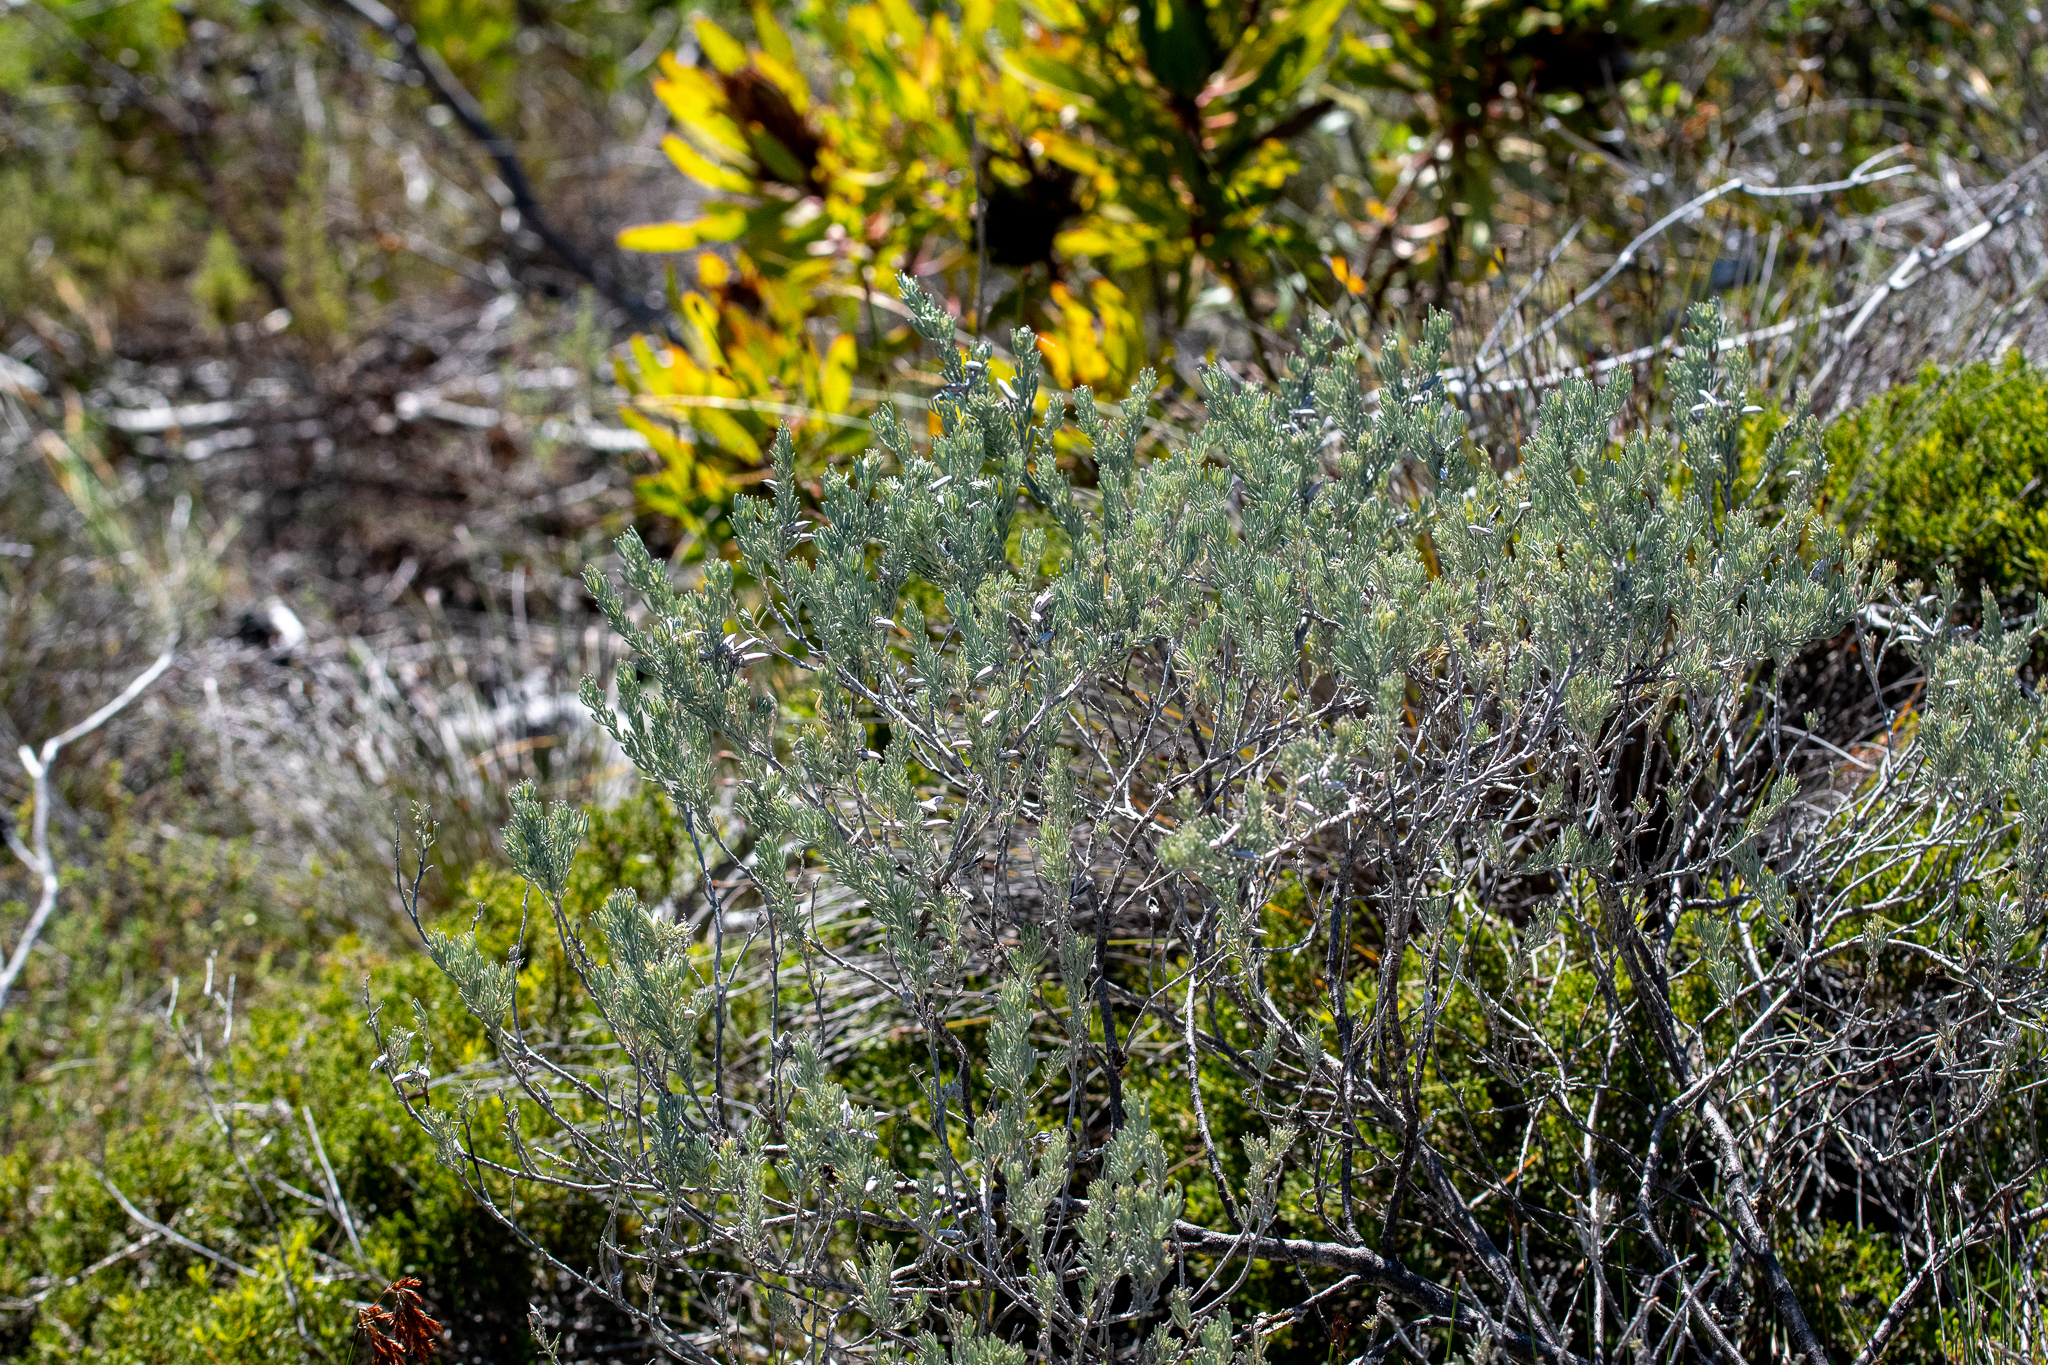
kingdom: Plantae
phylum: Tracheophyta
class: Magnoliopsida
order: Fabales
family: Fabaceae
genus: Indigofera
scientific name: Indigofera
